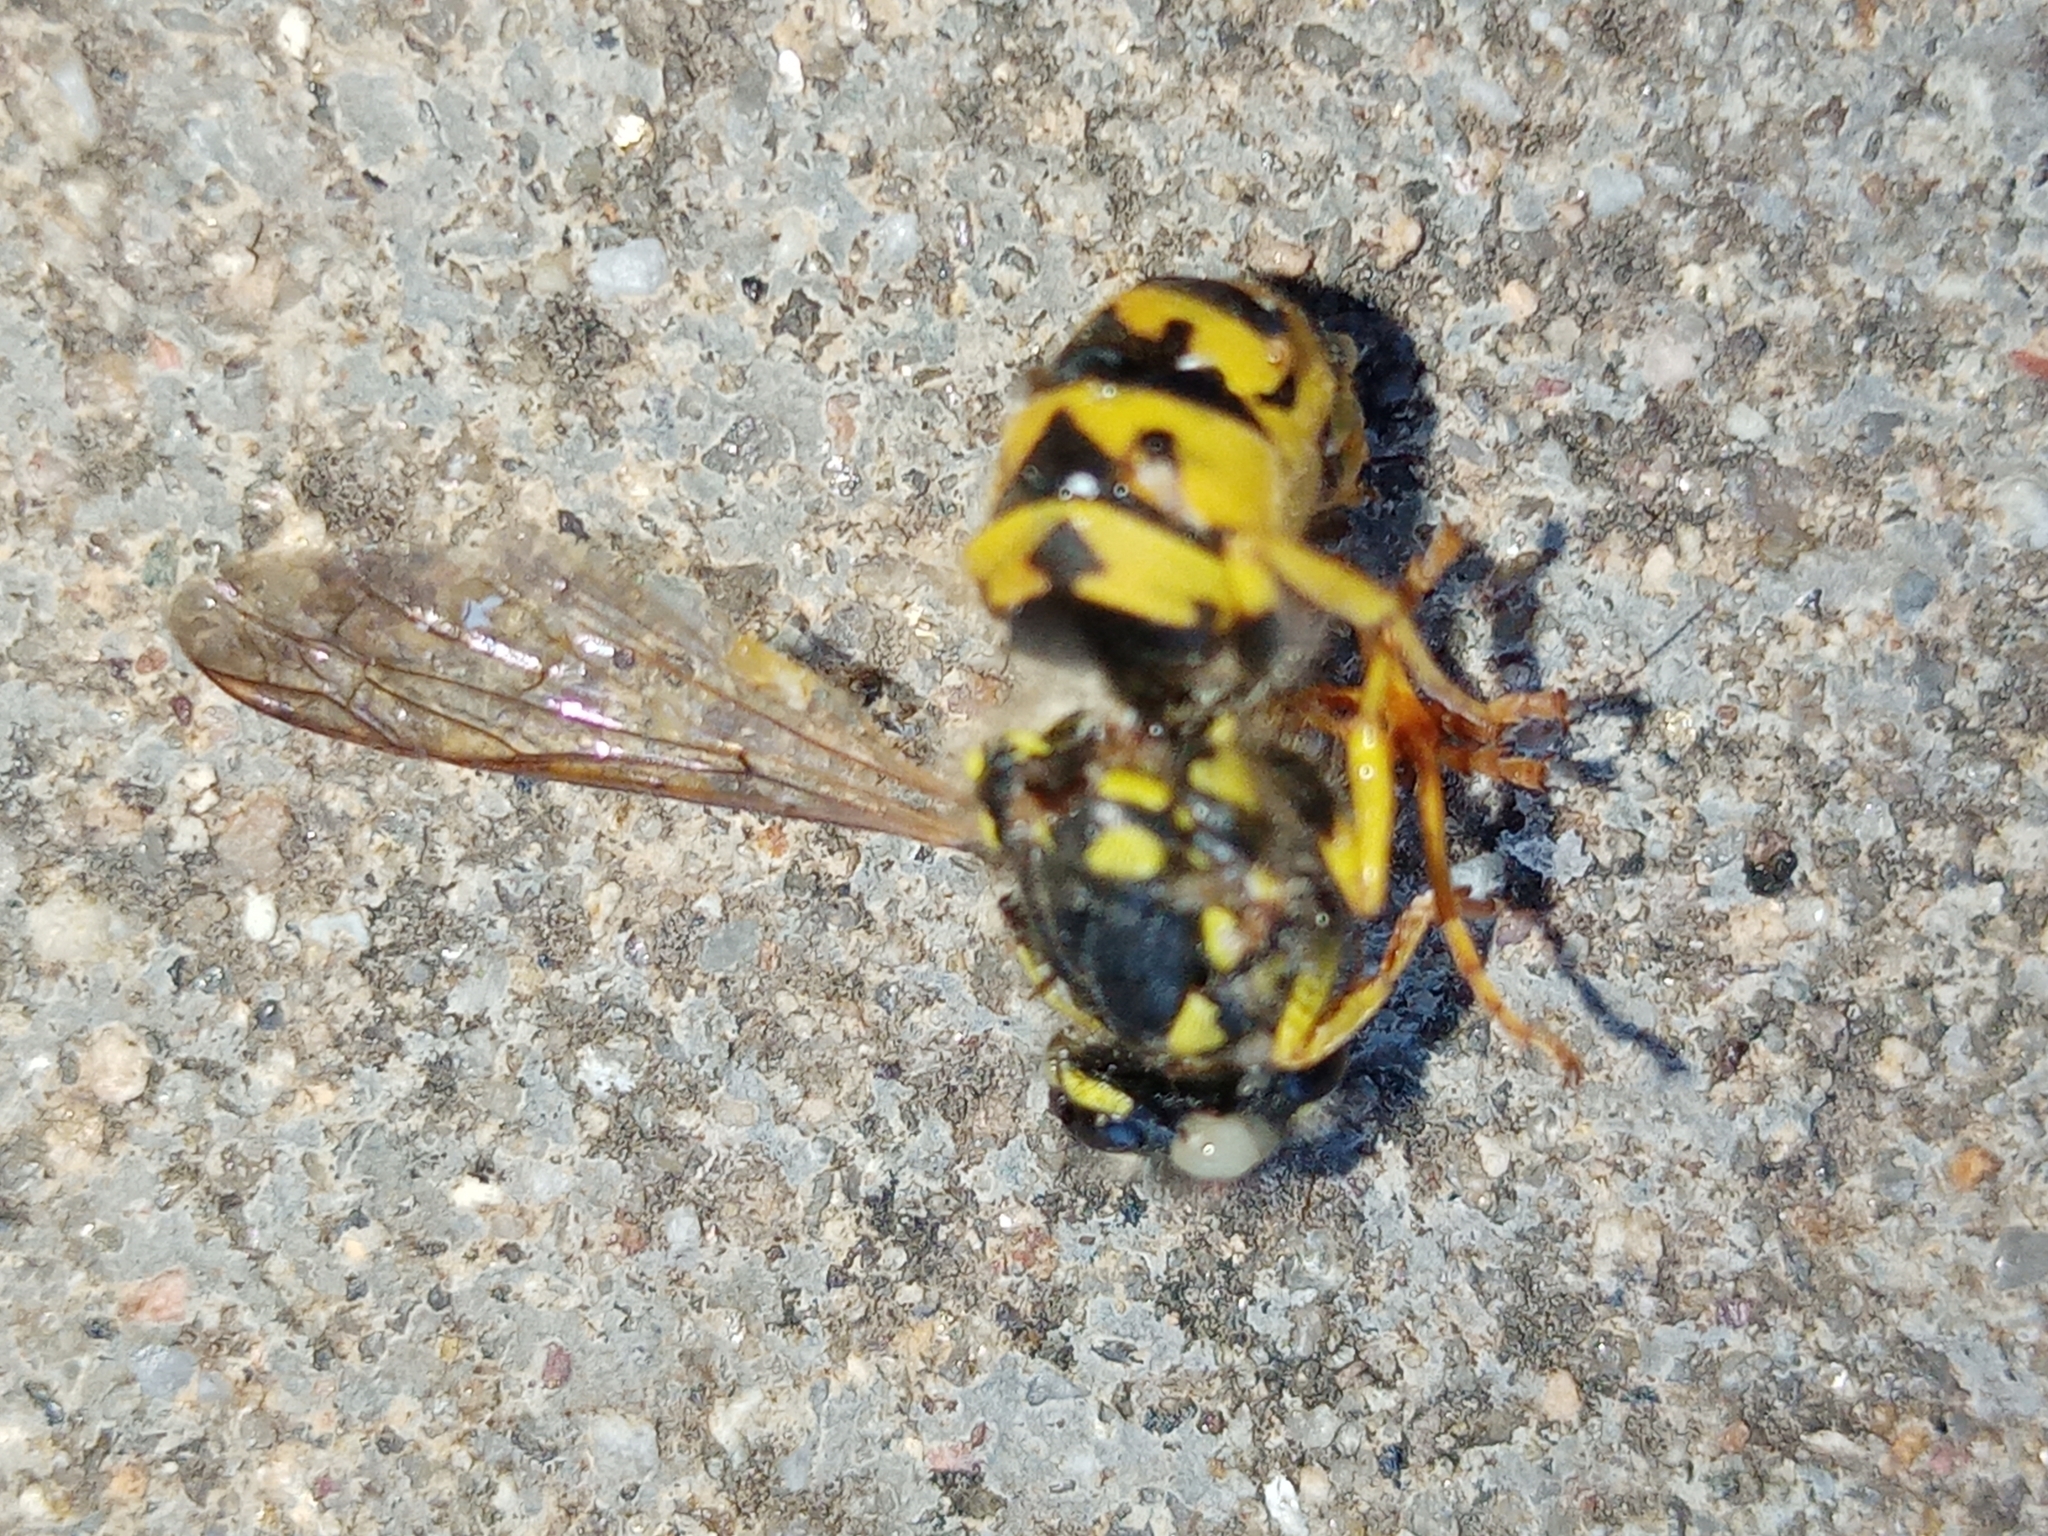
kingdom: Animalia
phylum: Arthropoda
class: Insecta
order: Hymenoptera
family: Vespidae
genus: Vespula
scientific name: Vespula germanica
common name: German wasp
